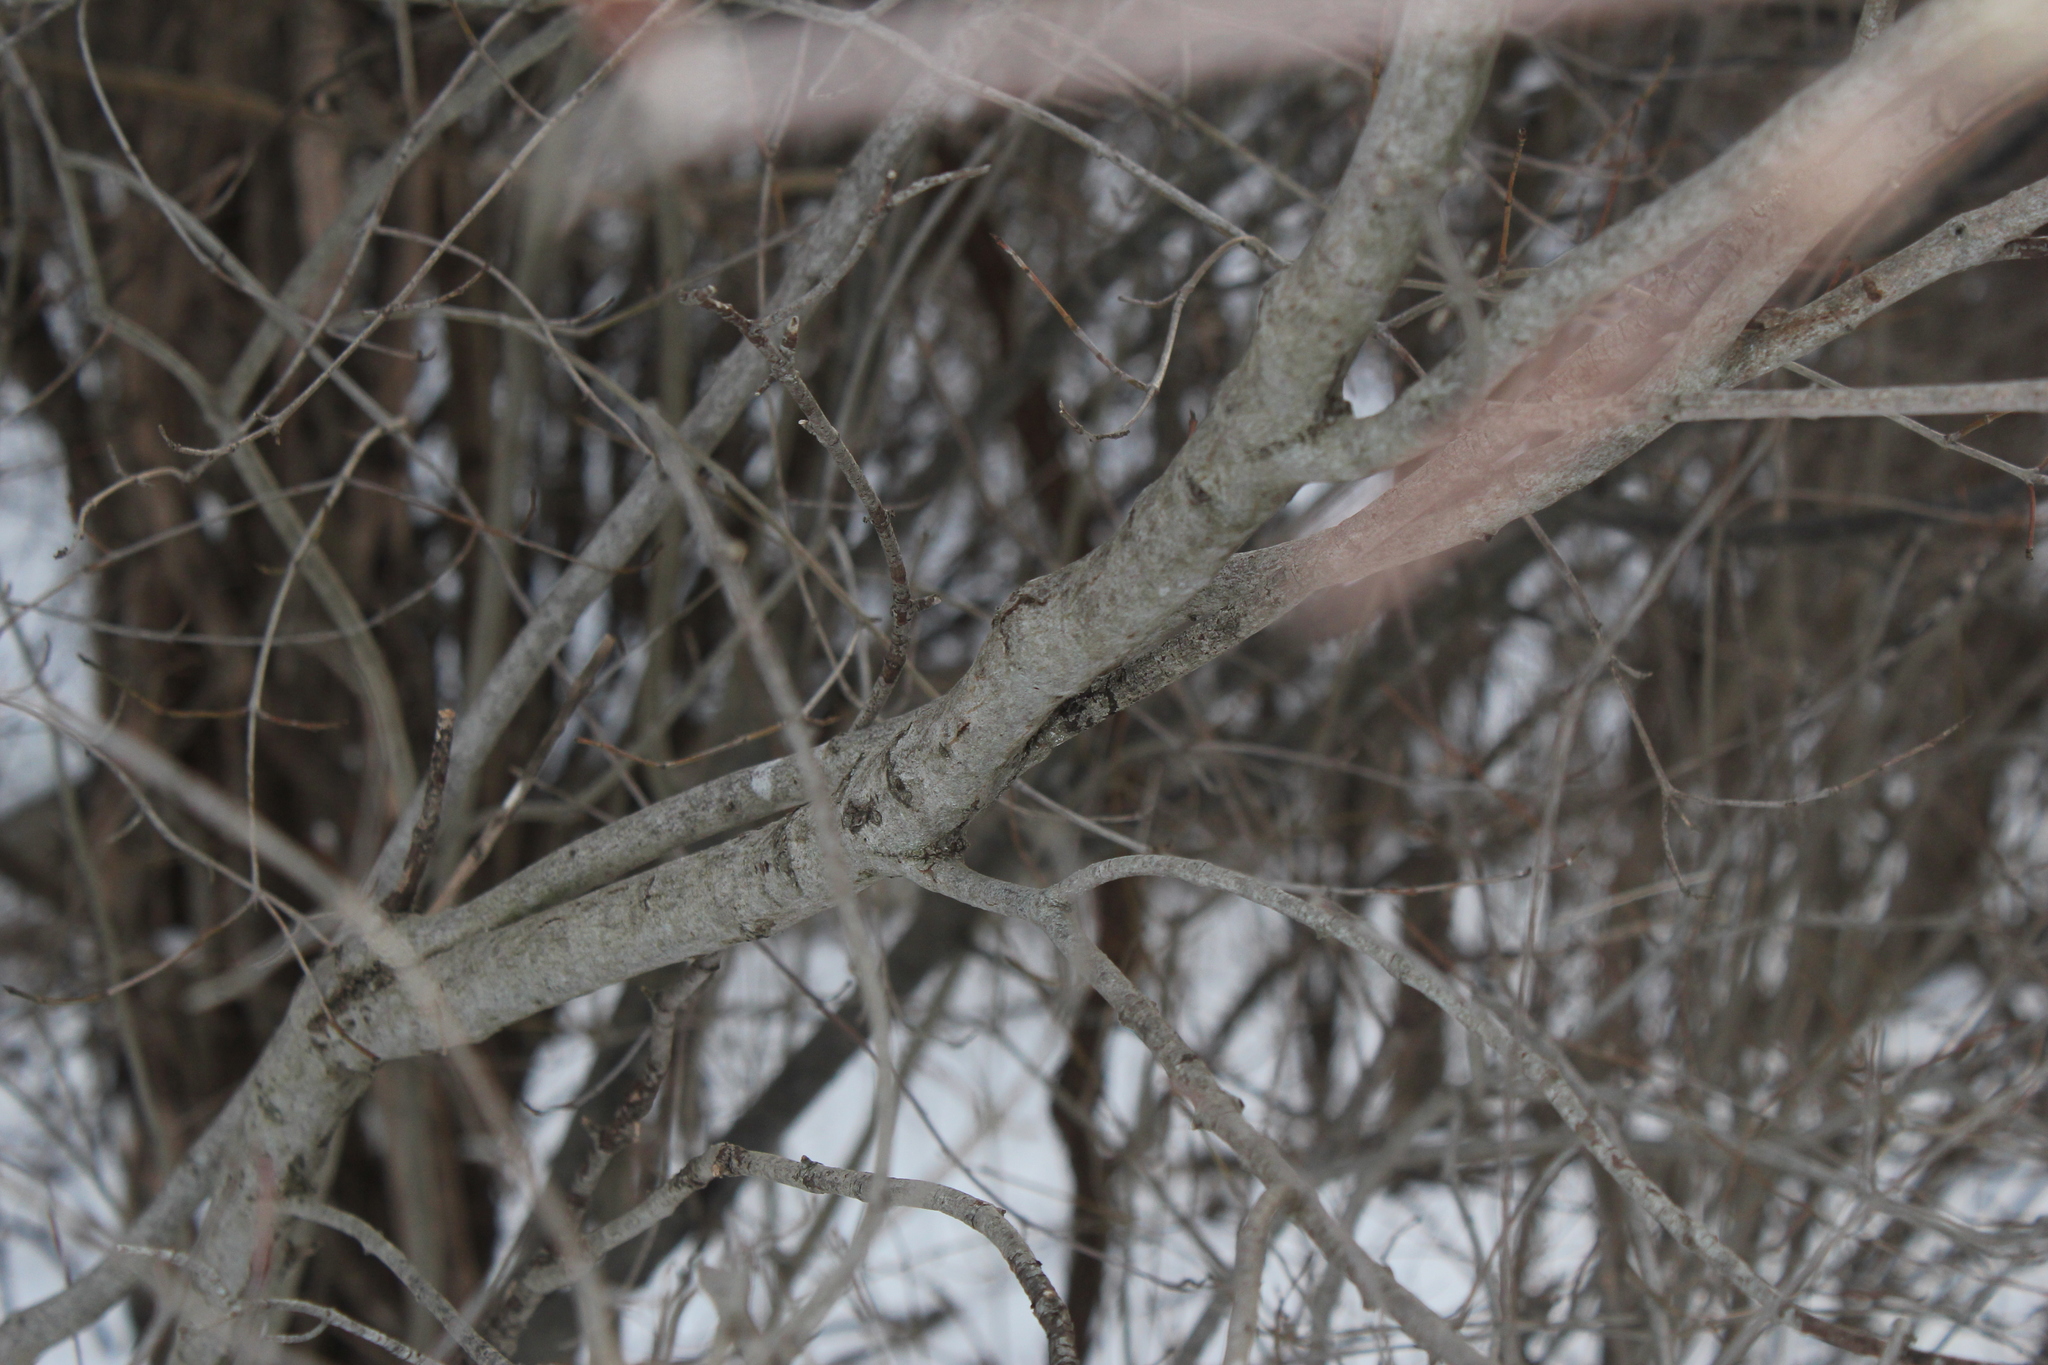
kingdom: Plantae
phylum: Tracheophyta
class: Magnoliopsida
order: Cornales
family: Cornaceae
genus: Cornus
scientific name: Cornus racemosa
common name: Panicled dogwood
